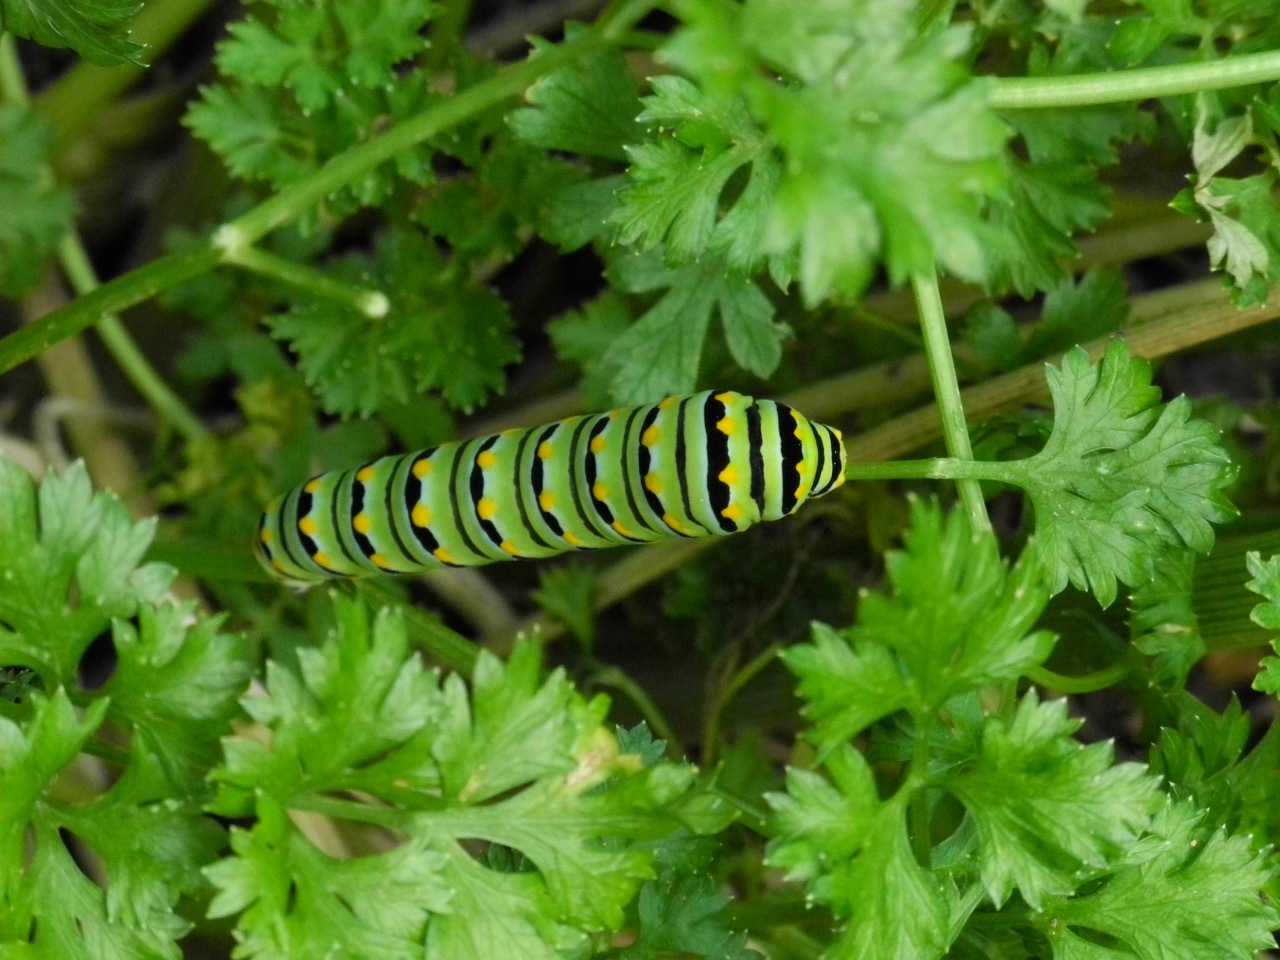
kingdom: Animalia
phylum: Arthropoda
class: Insecta
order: Lepidoptera
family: Papilionidae
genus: Papilio
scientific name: Papilio polyxenes
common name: Black swallowtail
